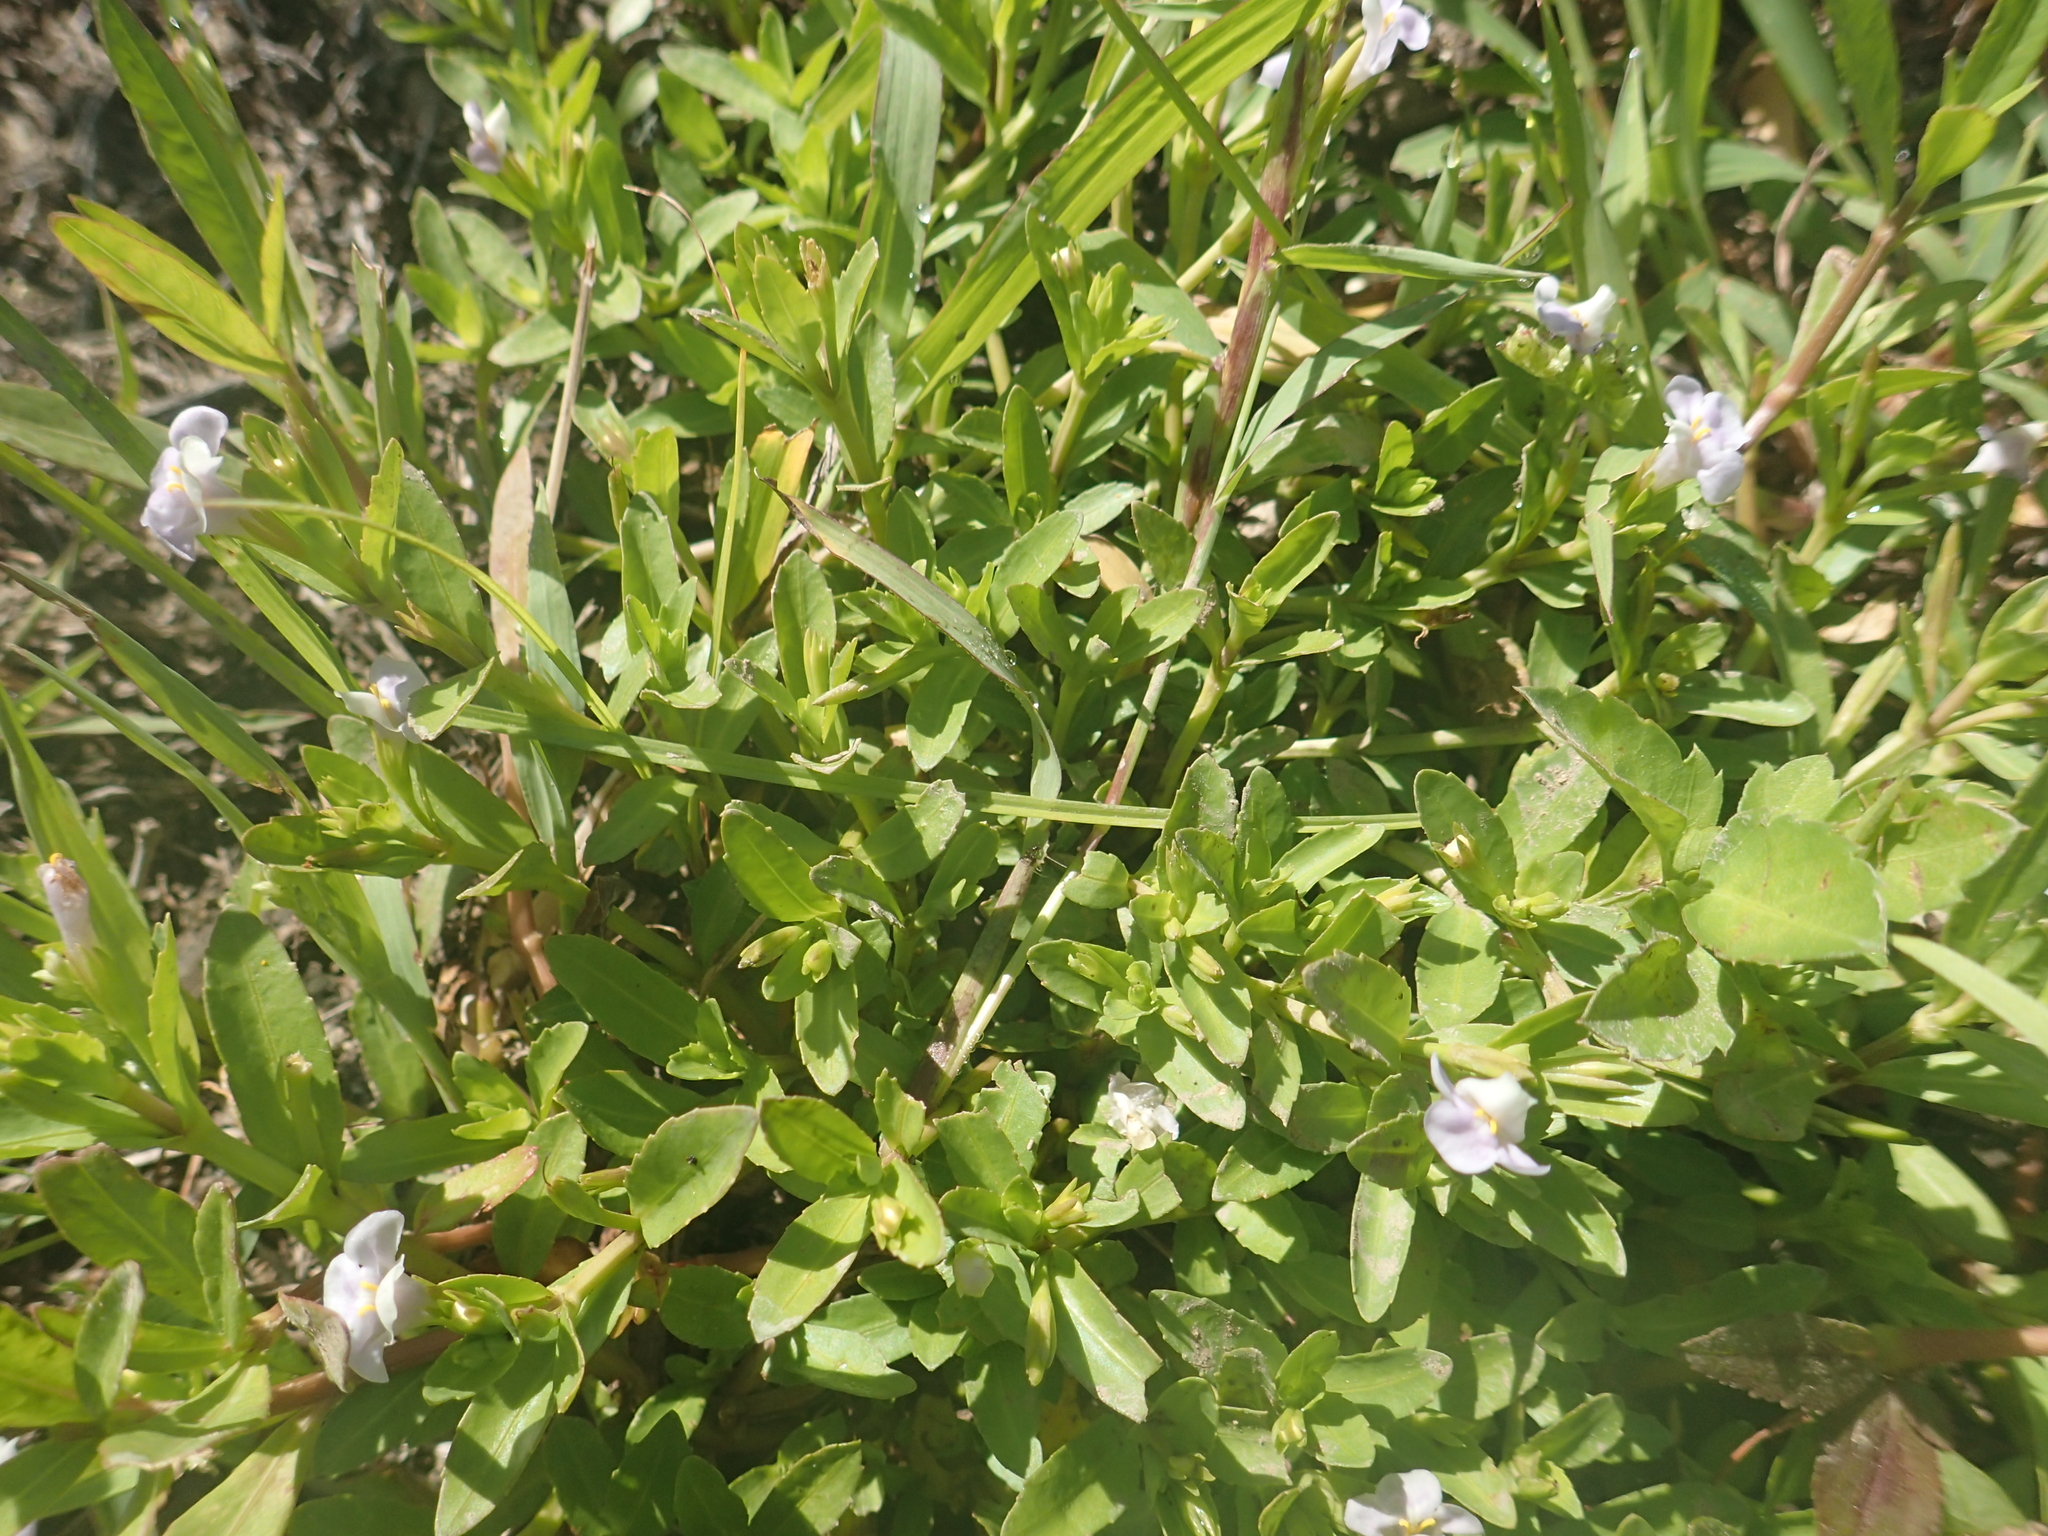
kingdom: Plantae
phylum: Tracheophyta
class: Magnoliopsida
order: Lamiales
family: Linderniaceae
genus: Bonnaya
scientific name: Bonnaya antipoda
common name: Sparrow false pimpernel
